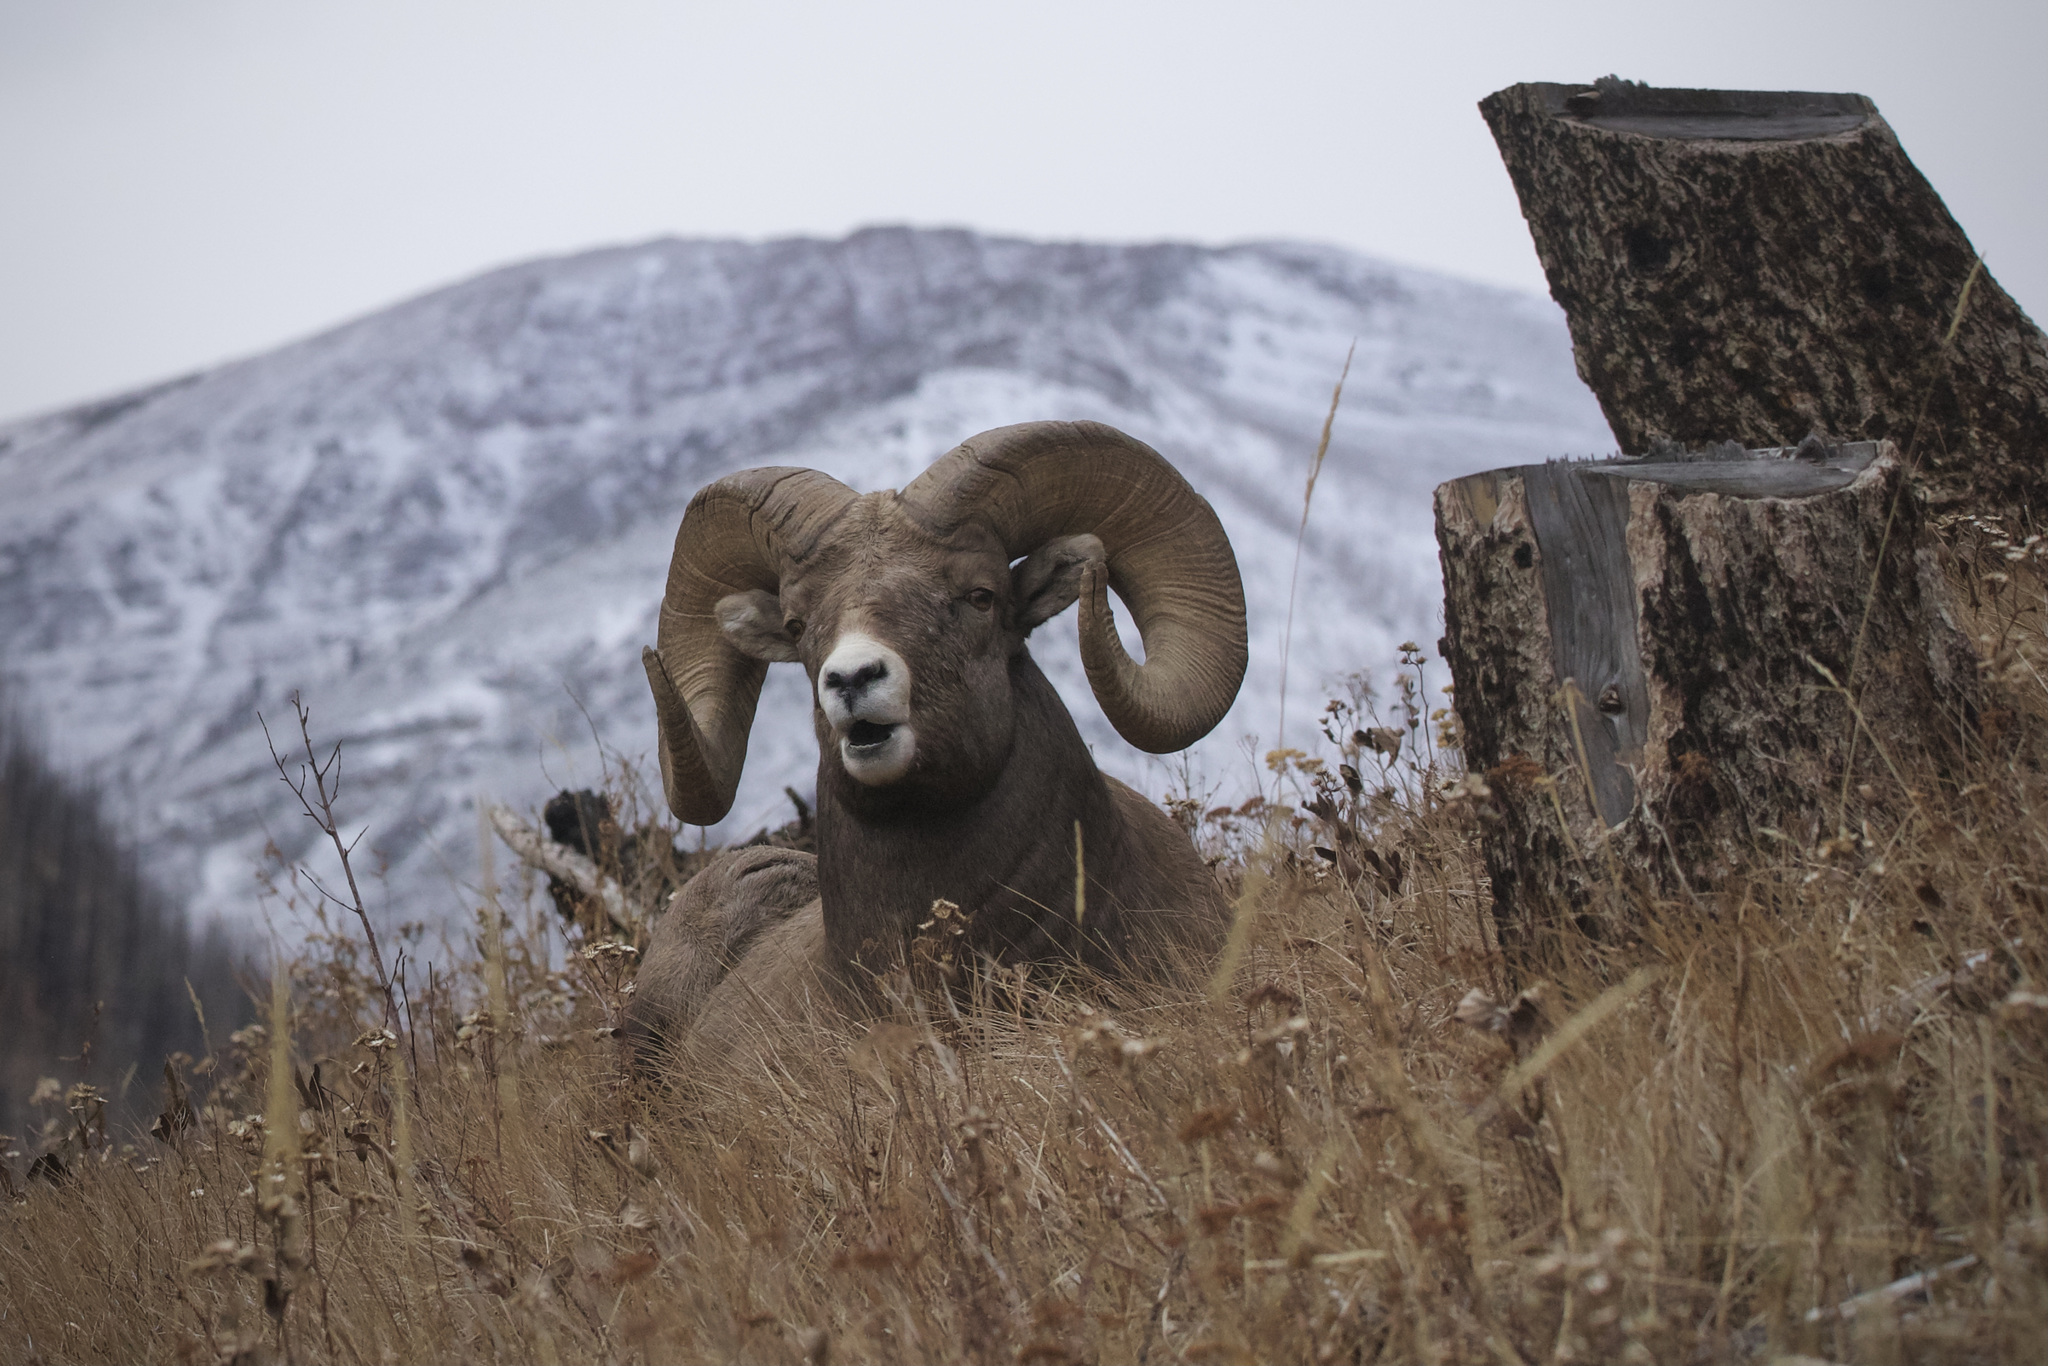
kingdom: Animalia
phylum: Chordata
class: Mammalia
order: Artiodactyla
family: Bovidae
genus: Ovis
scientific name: Ovis canadensis
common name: Bighorn sheep
